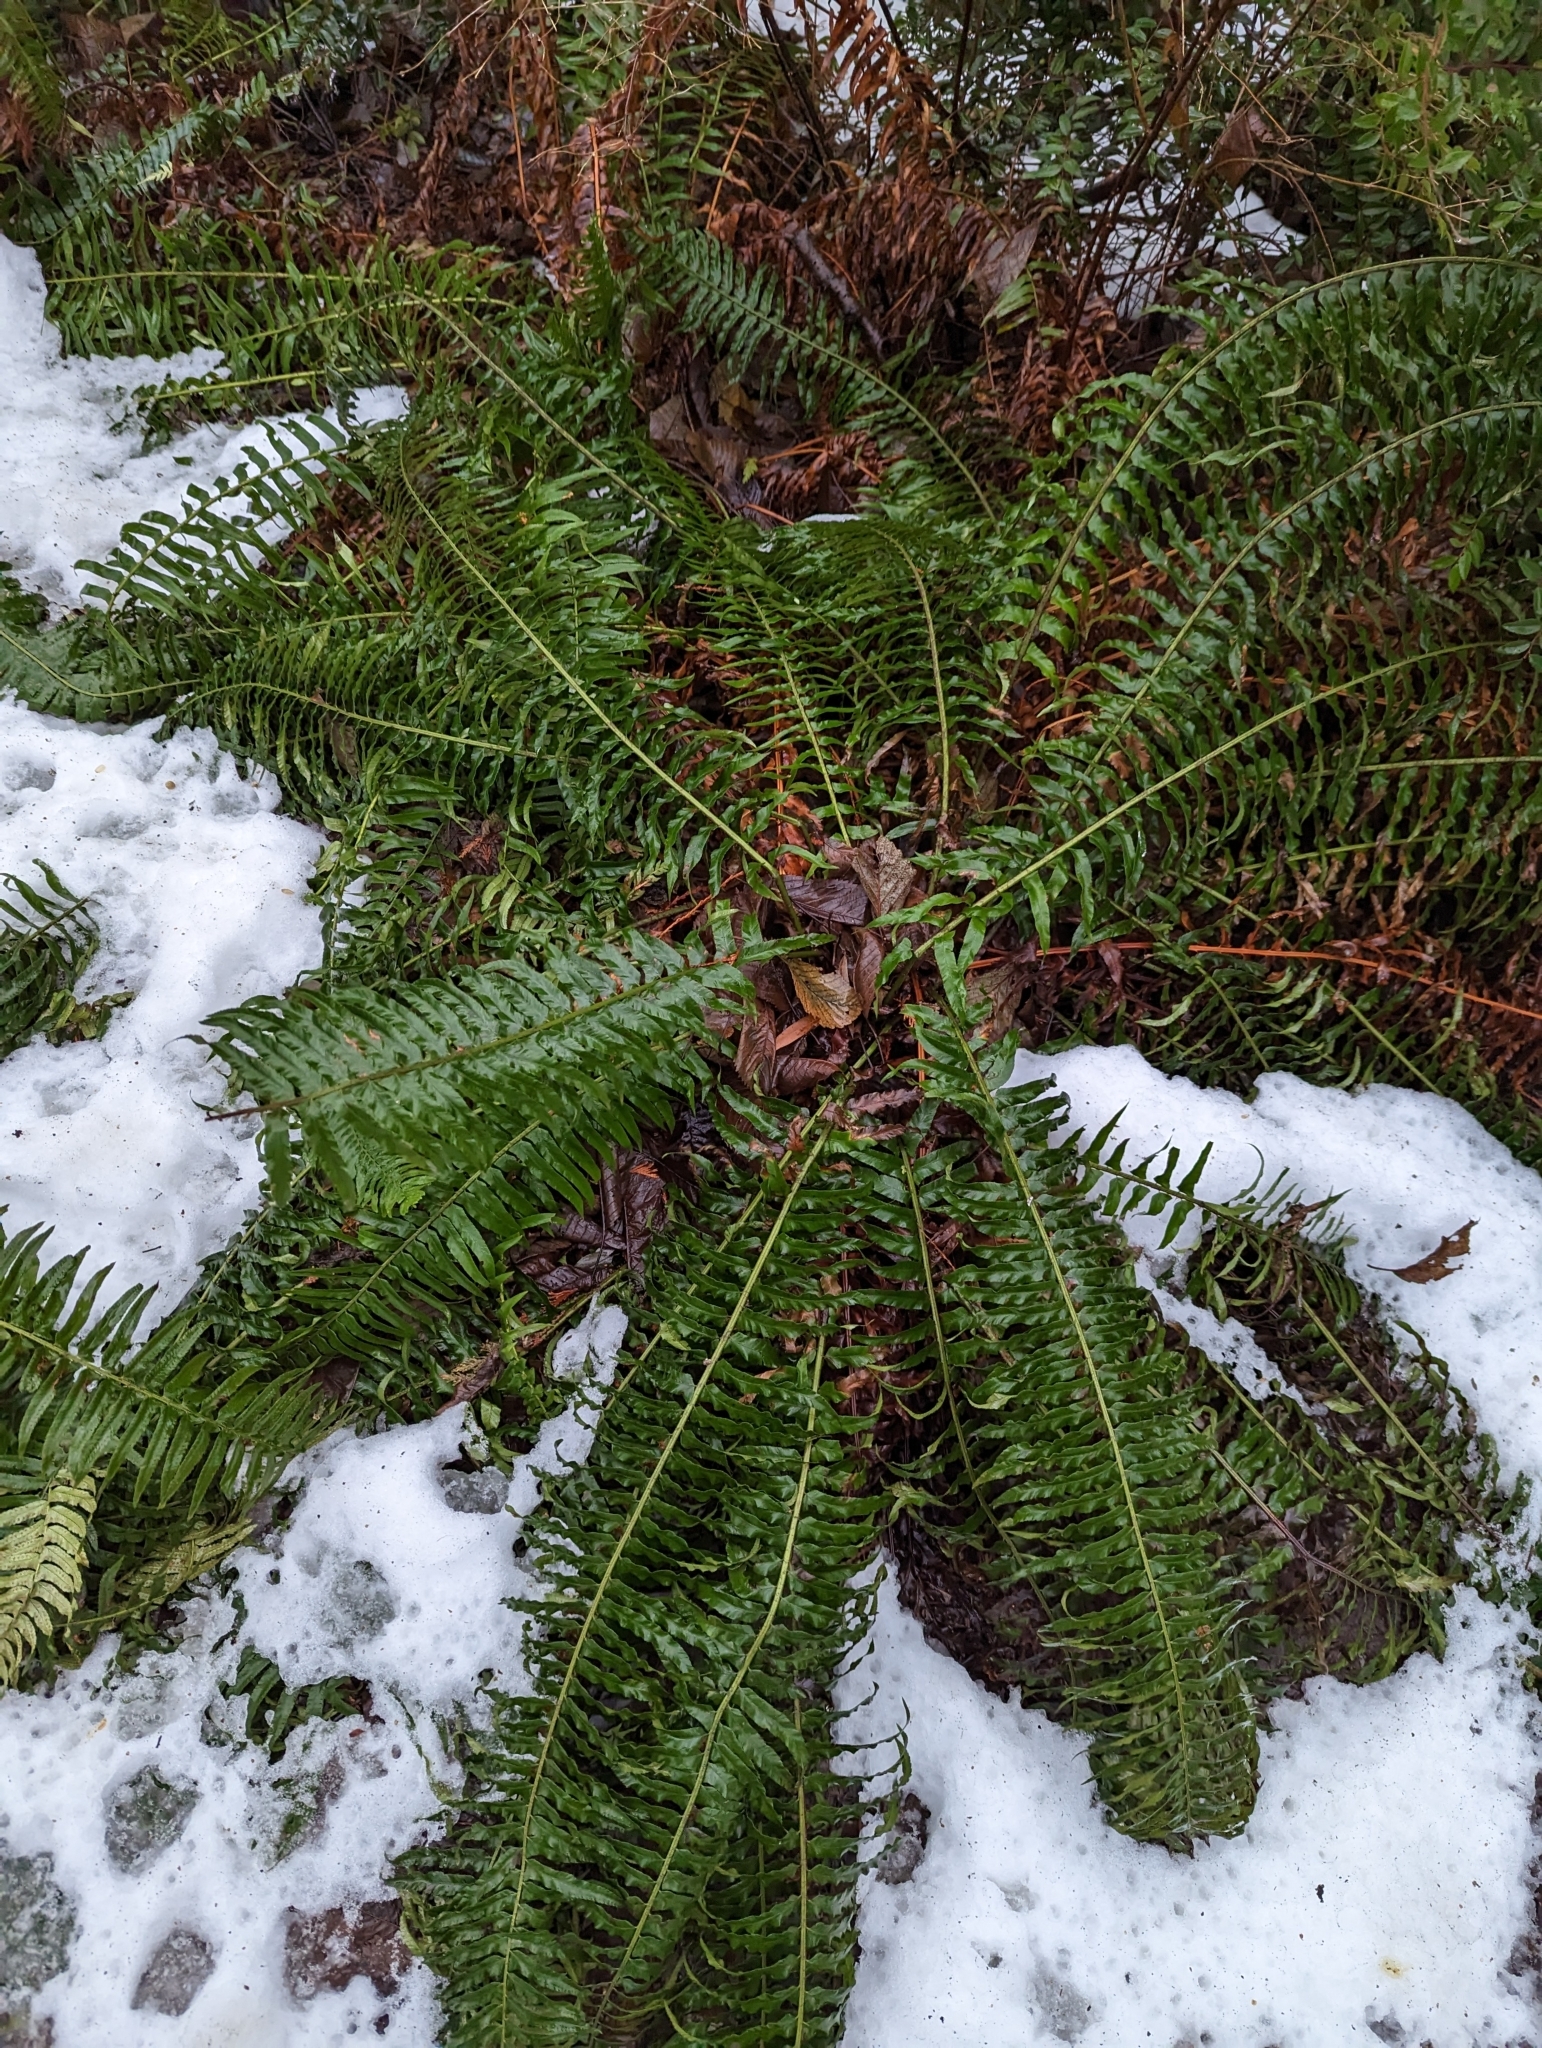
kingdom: Plantae
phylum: Tracheophyta
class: Polypodiopsida
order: Polypodiales
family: Dryopteridaceae
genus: Polystichum
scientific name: Polystichum munitum
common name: Western sword-fern
